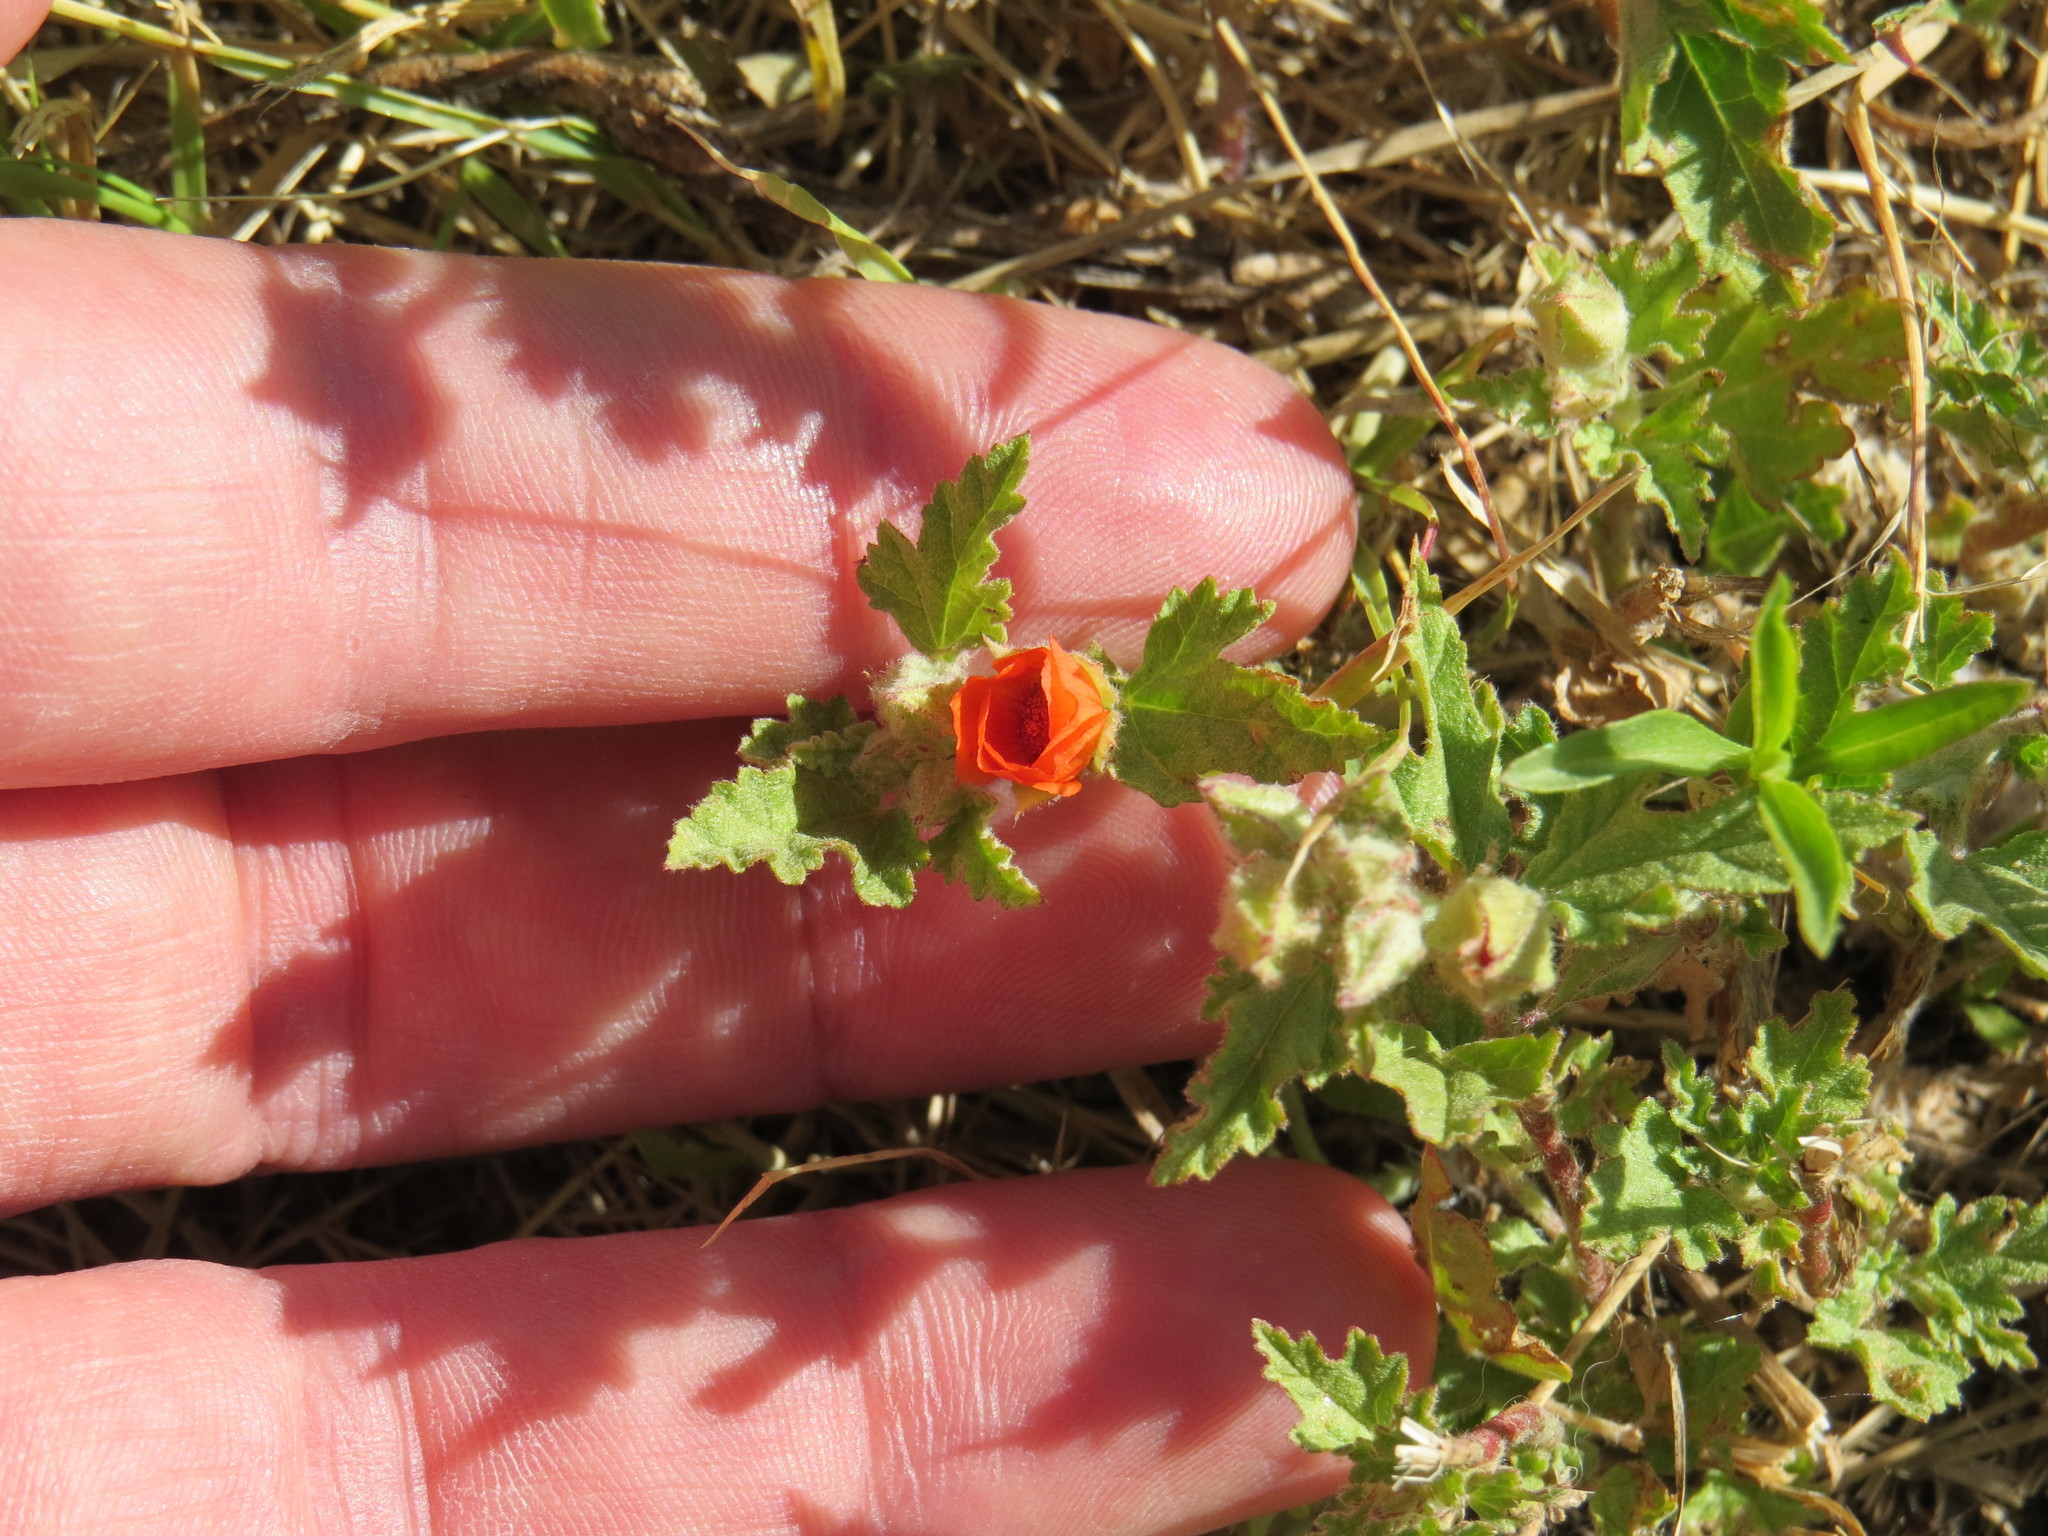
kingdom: Plantae
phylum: Tracheophyta
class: Magnoliopsida
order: Malvales
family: Malvaceae
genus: Sphaeralcea
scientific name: Sphaeralcea miniata
